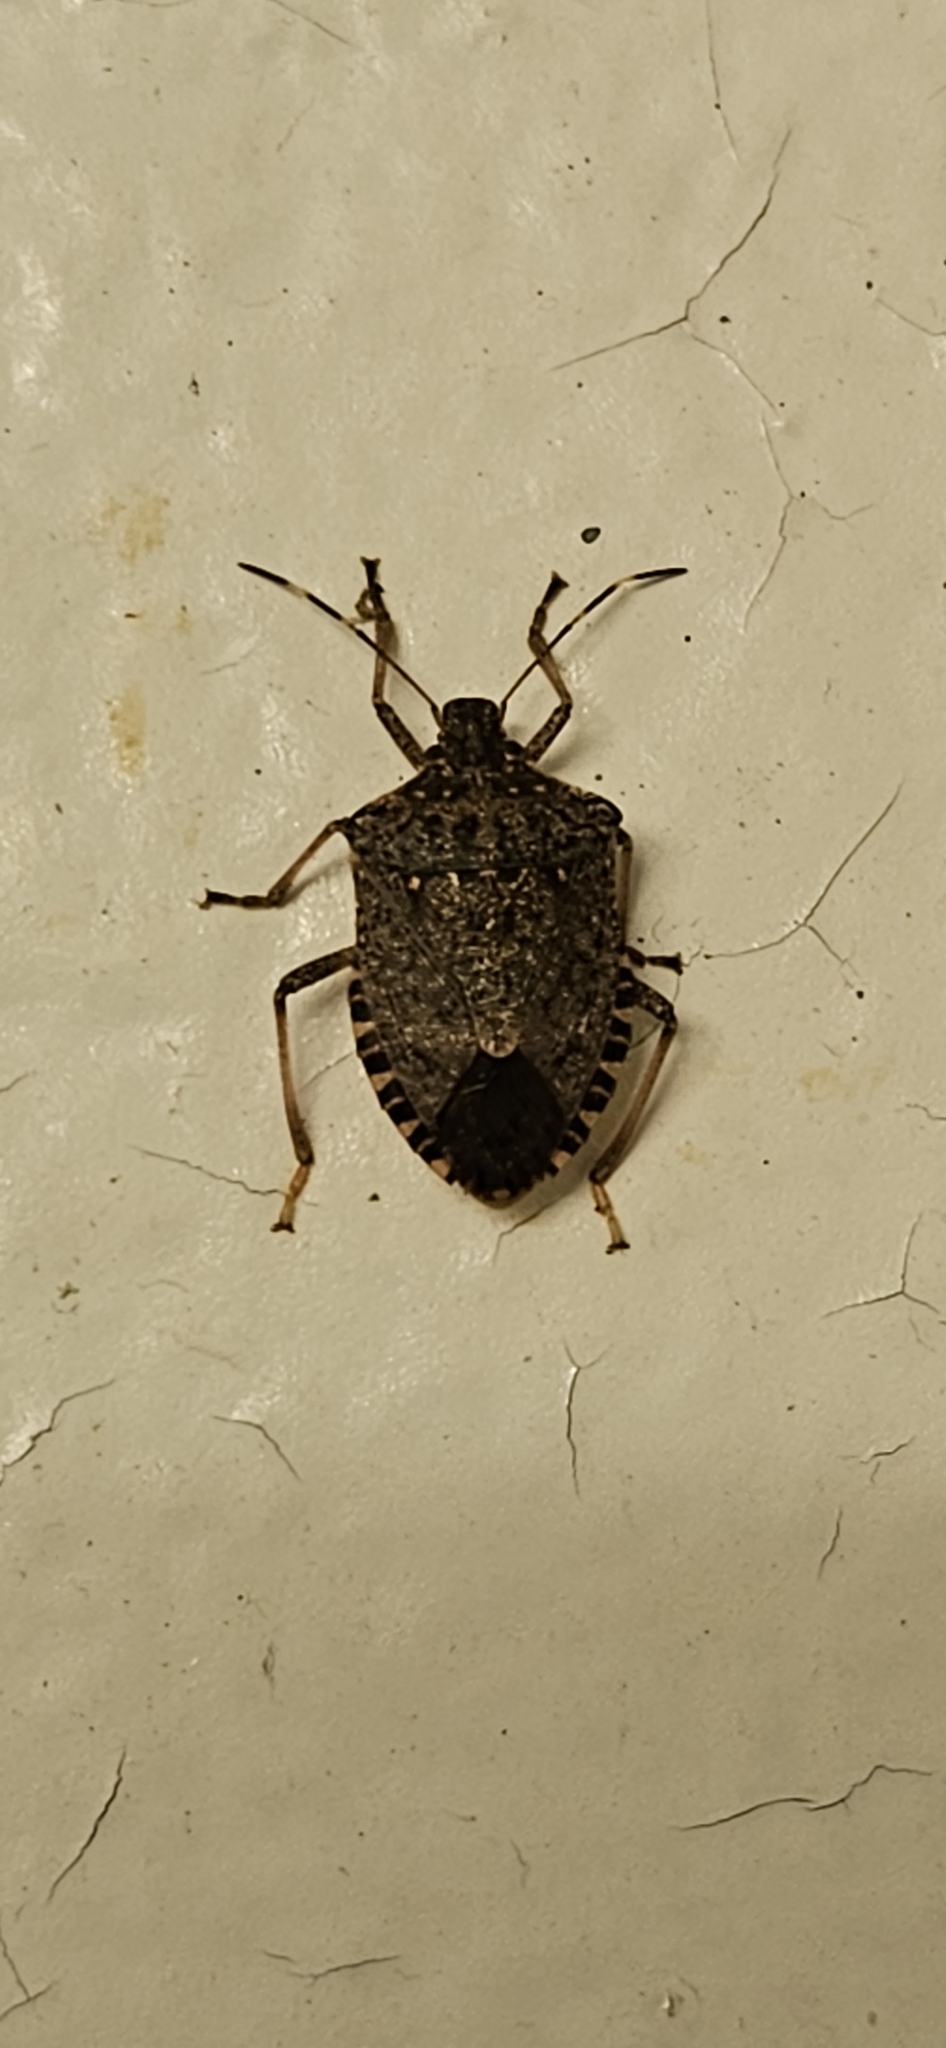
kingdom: Animalia
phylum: Arthropoda
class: Insecta
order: Hemiptera
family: Pentatomidae
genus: Halyomorpha
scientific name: Halyomorpha halys
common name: Brown marmorated stink bug
